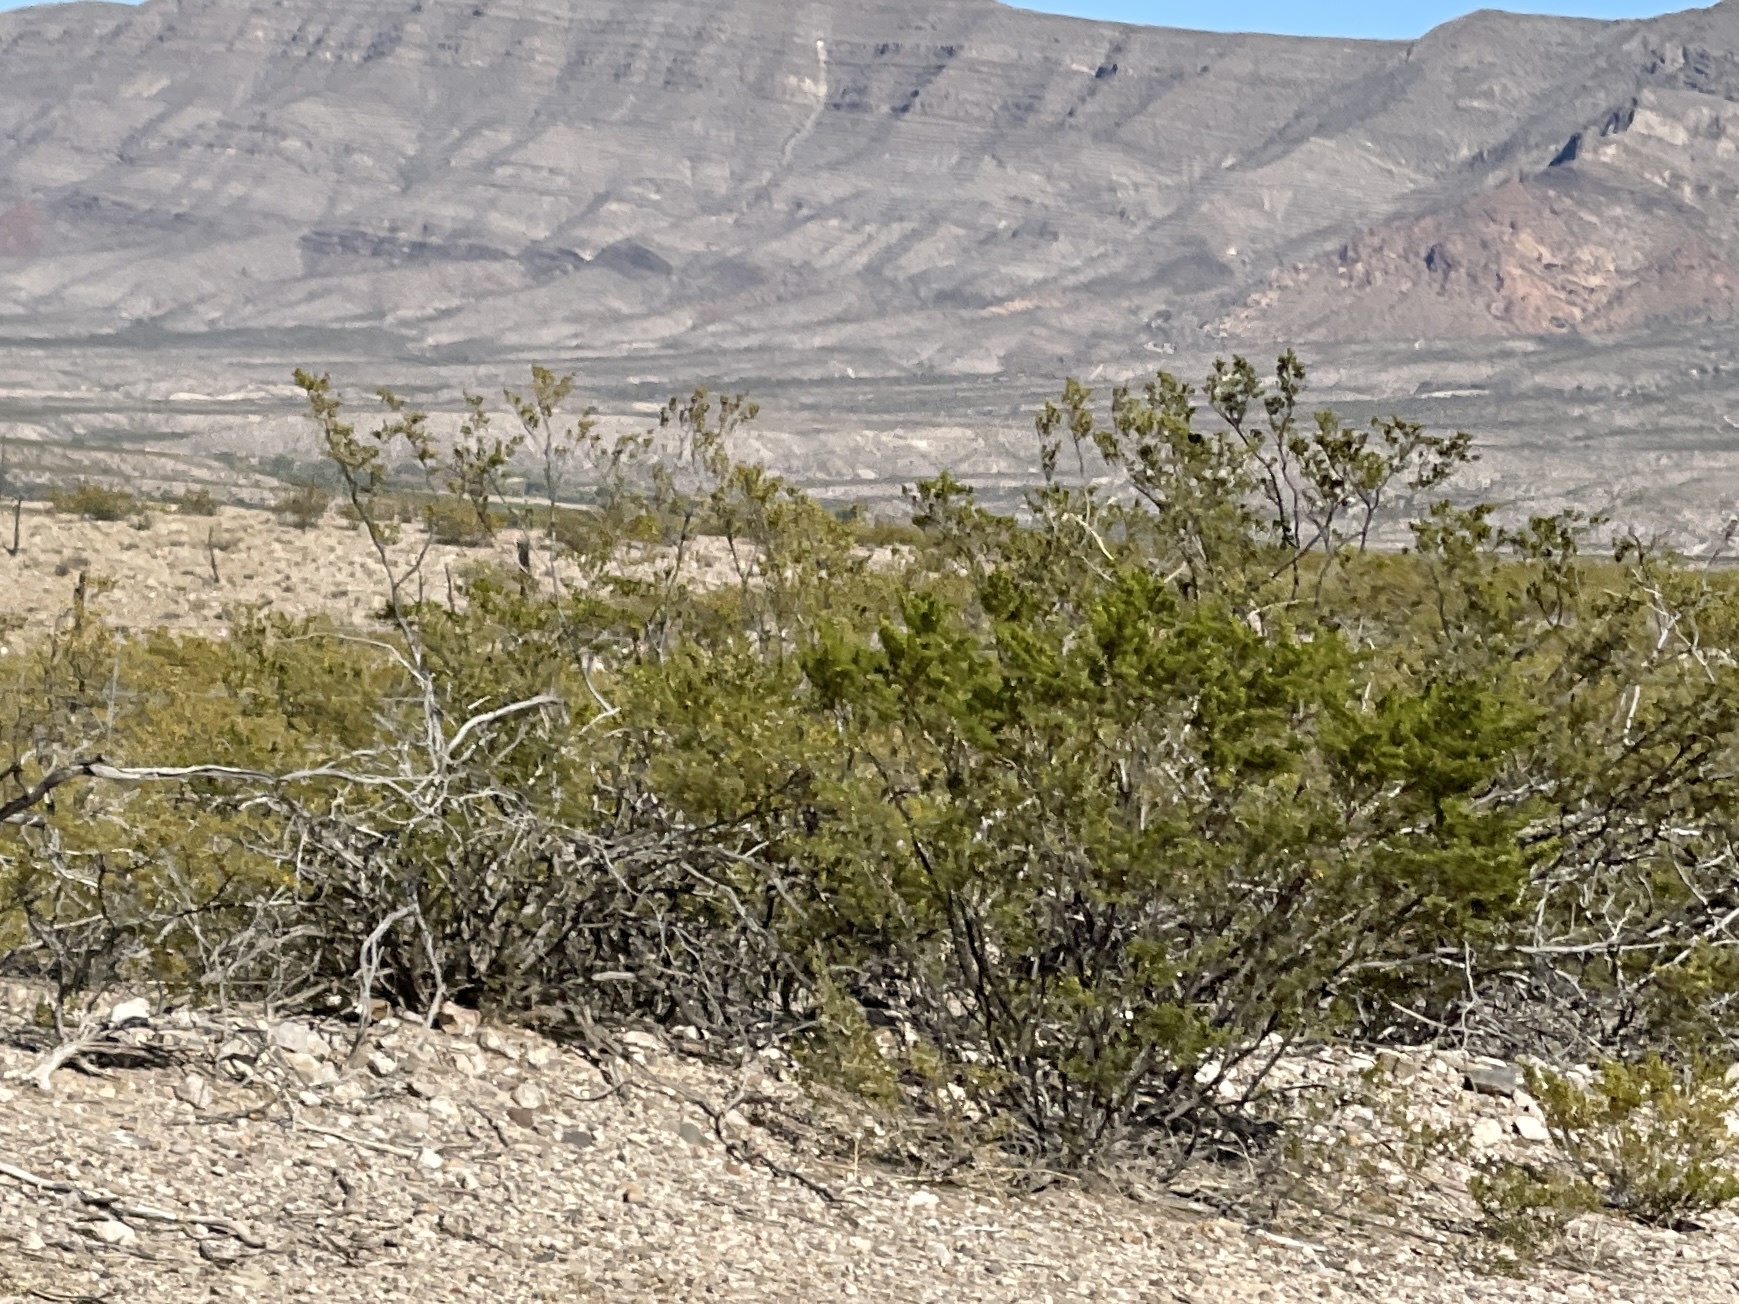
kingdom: Plantae
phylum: Tracheophyta
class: Magnoliopsida
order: Zygophyllales
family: Zygophyllaceae
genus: Larrea
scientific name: Larrea tridentata
